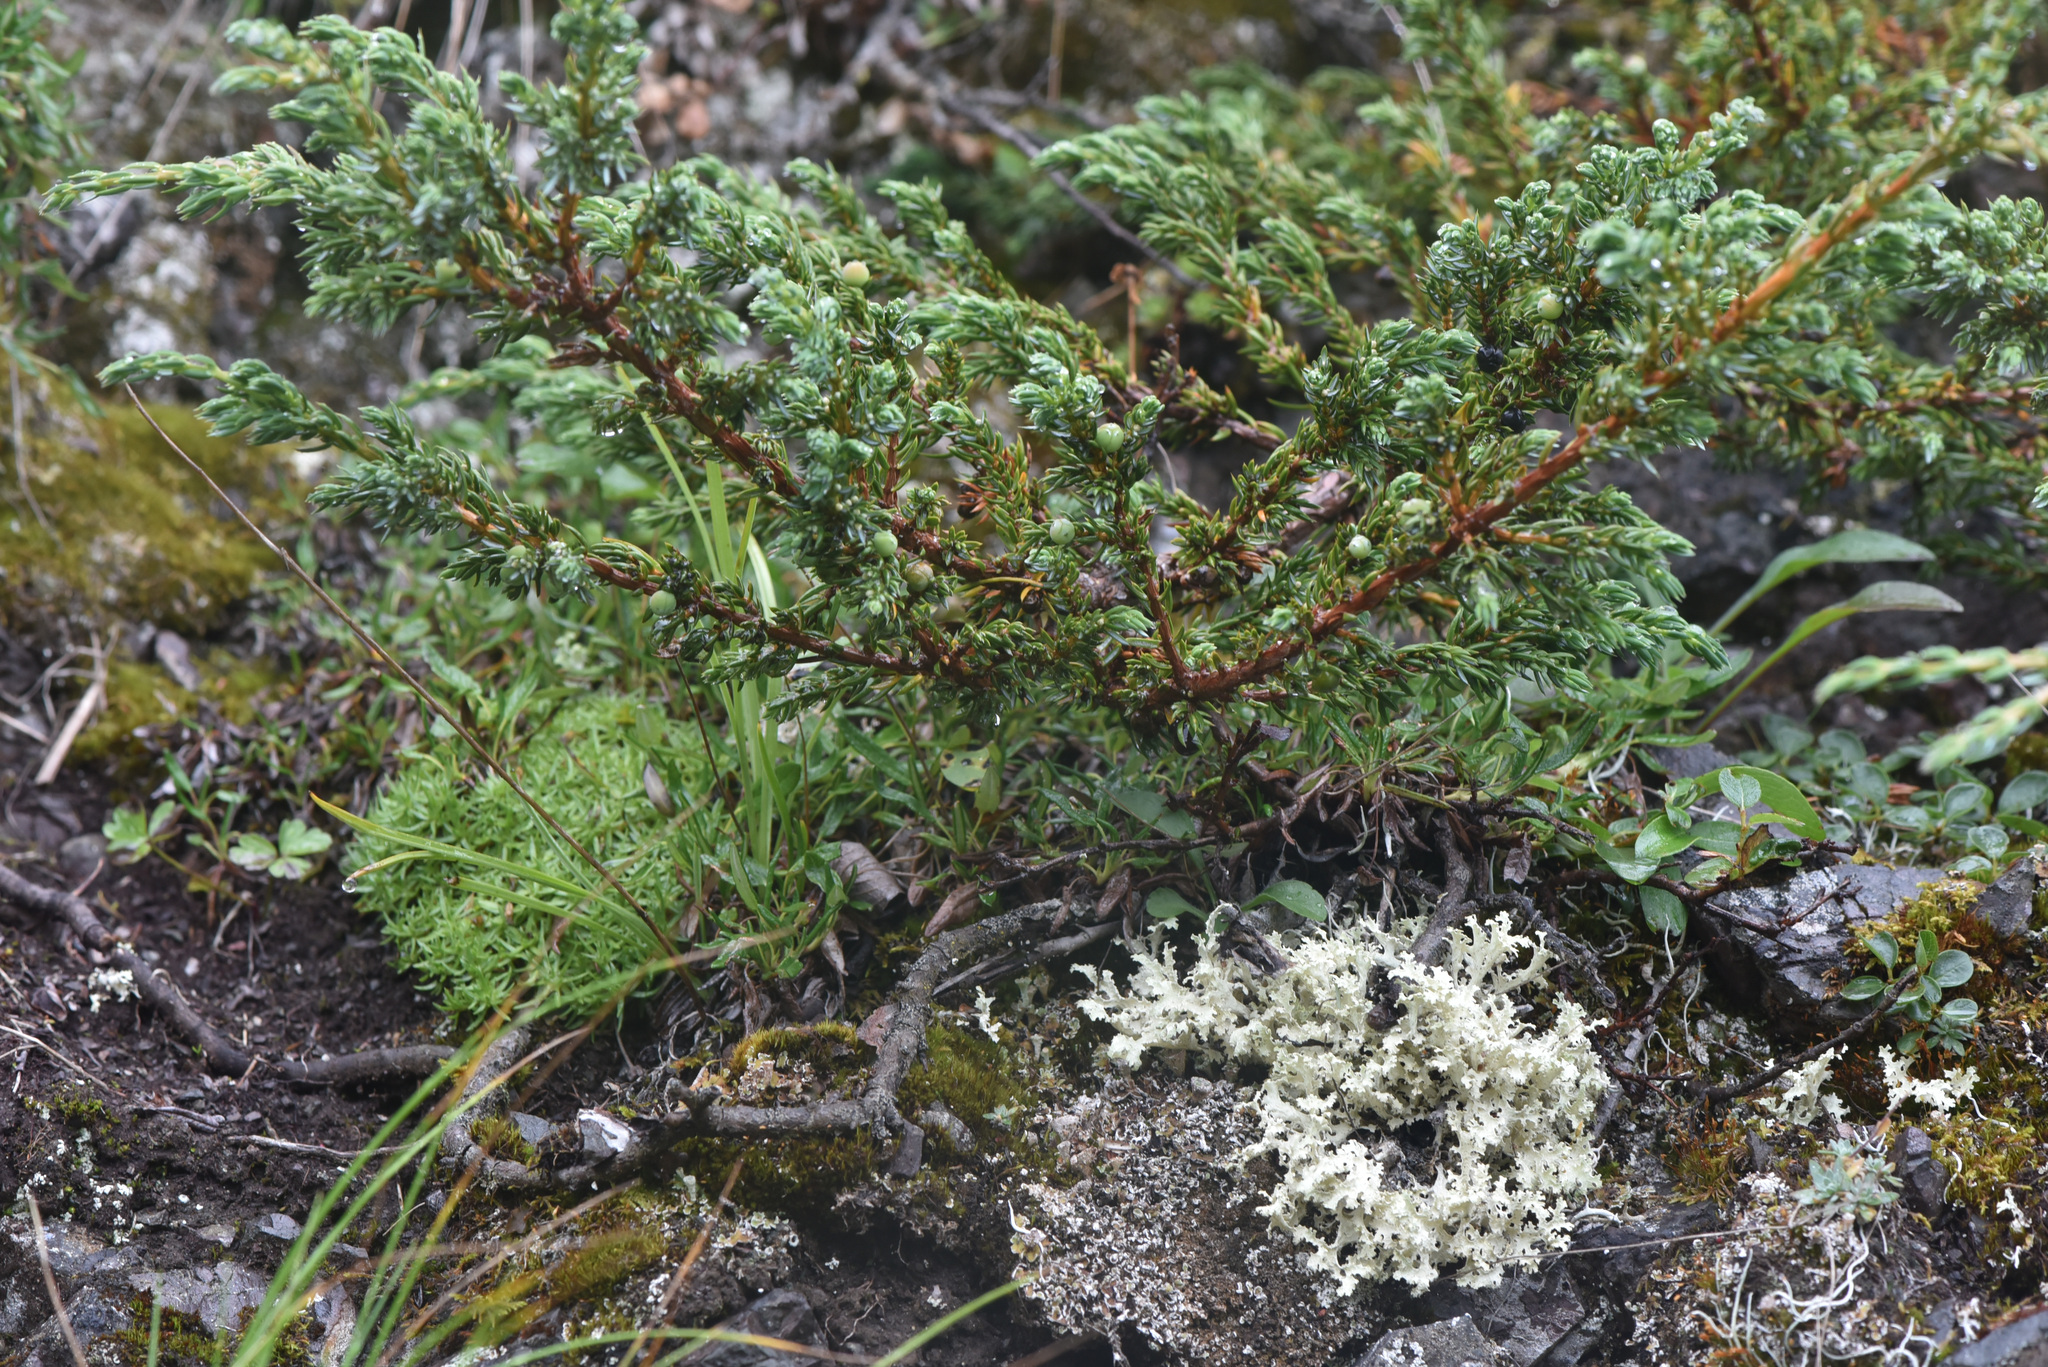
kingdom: Plantae
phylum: Tracheophyta
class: Pinopsida
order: Pinales
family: Cupressaceae
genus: Juniperus
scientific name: Juniperus communis
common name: Common juniper
